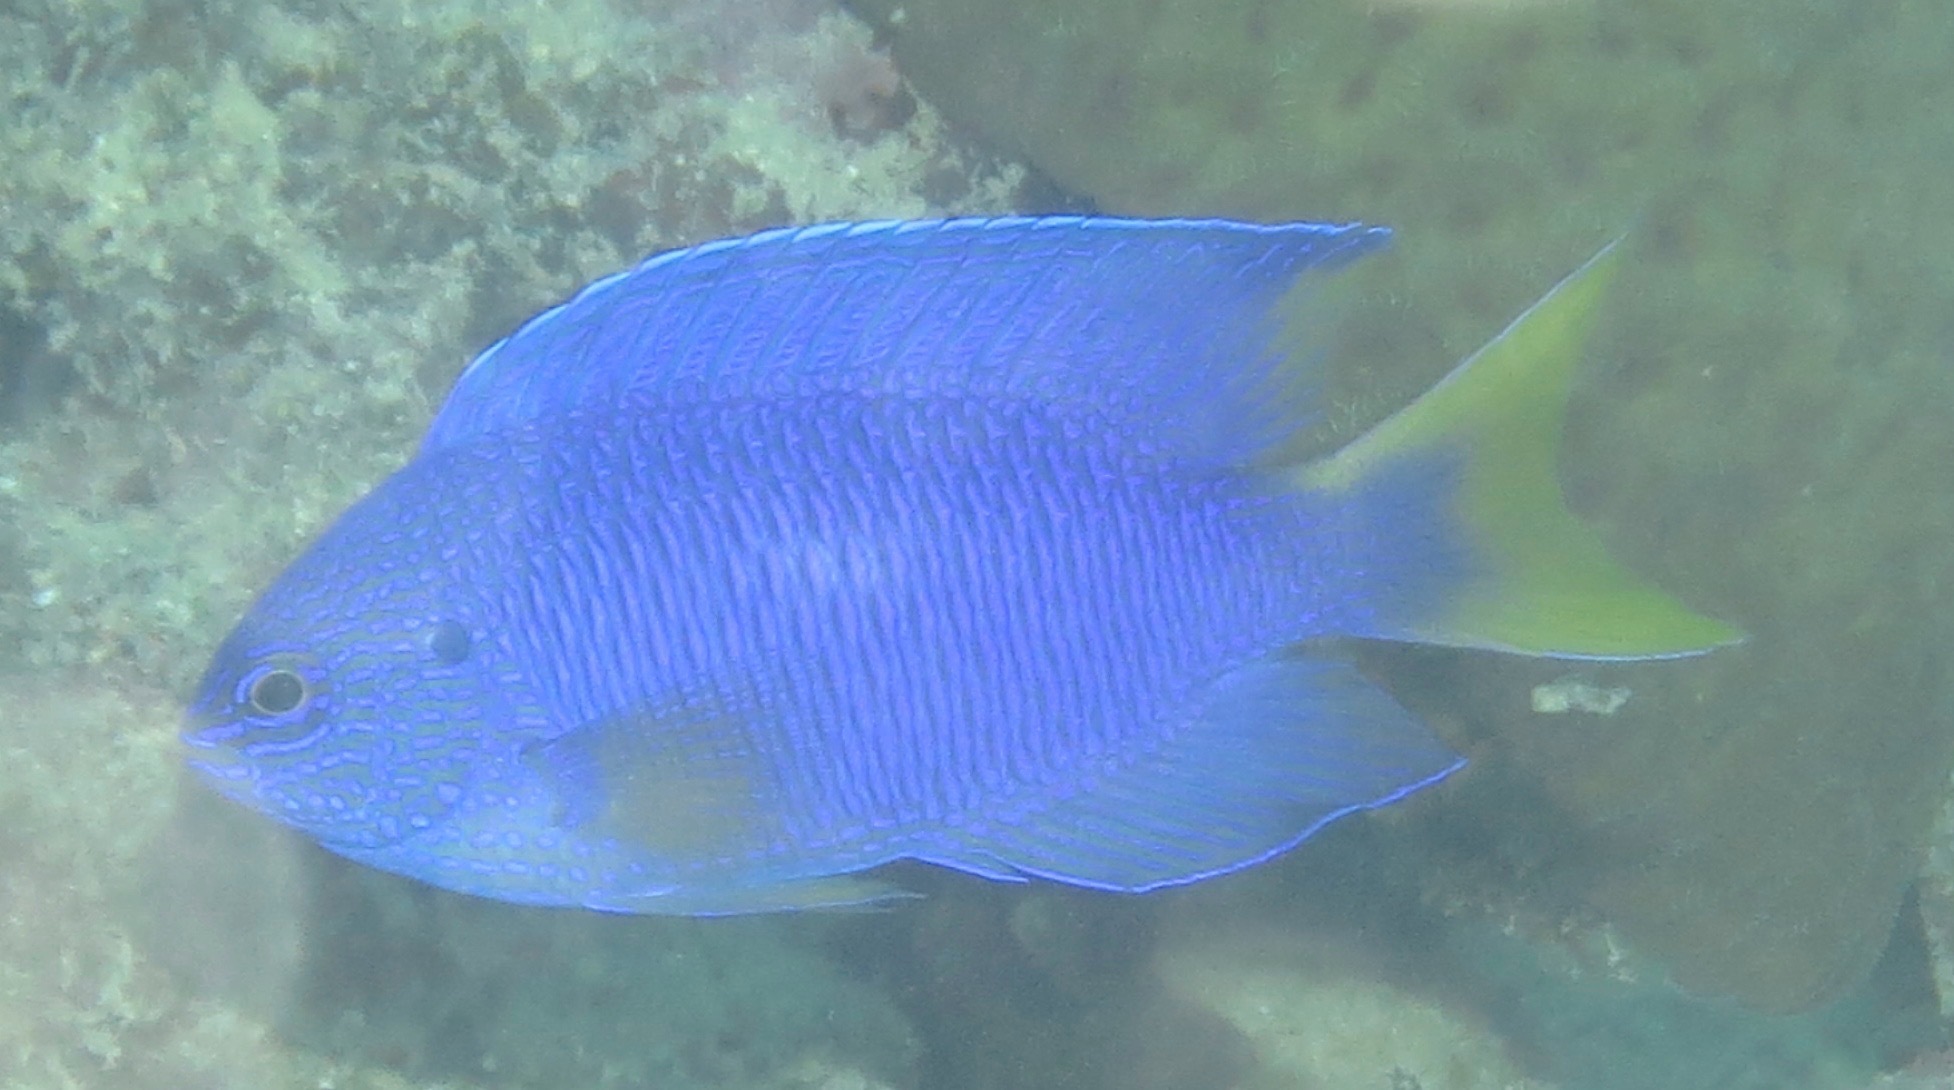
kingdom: Animalia
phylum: Chordata
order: Perciformes
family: Pomacentridae
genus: Pomacentrus
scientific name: Pomacentrus pavo
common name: Sapphire damsel
